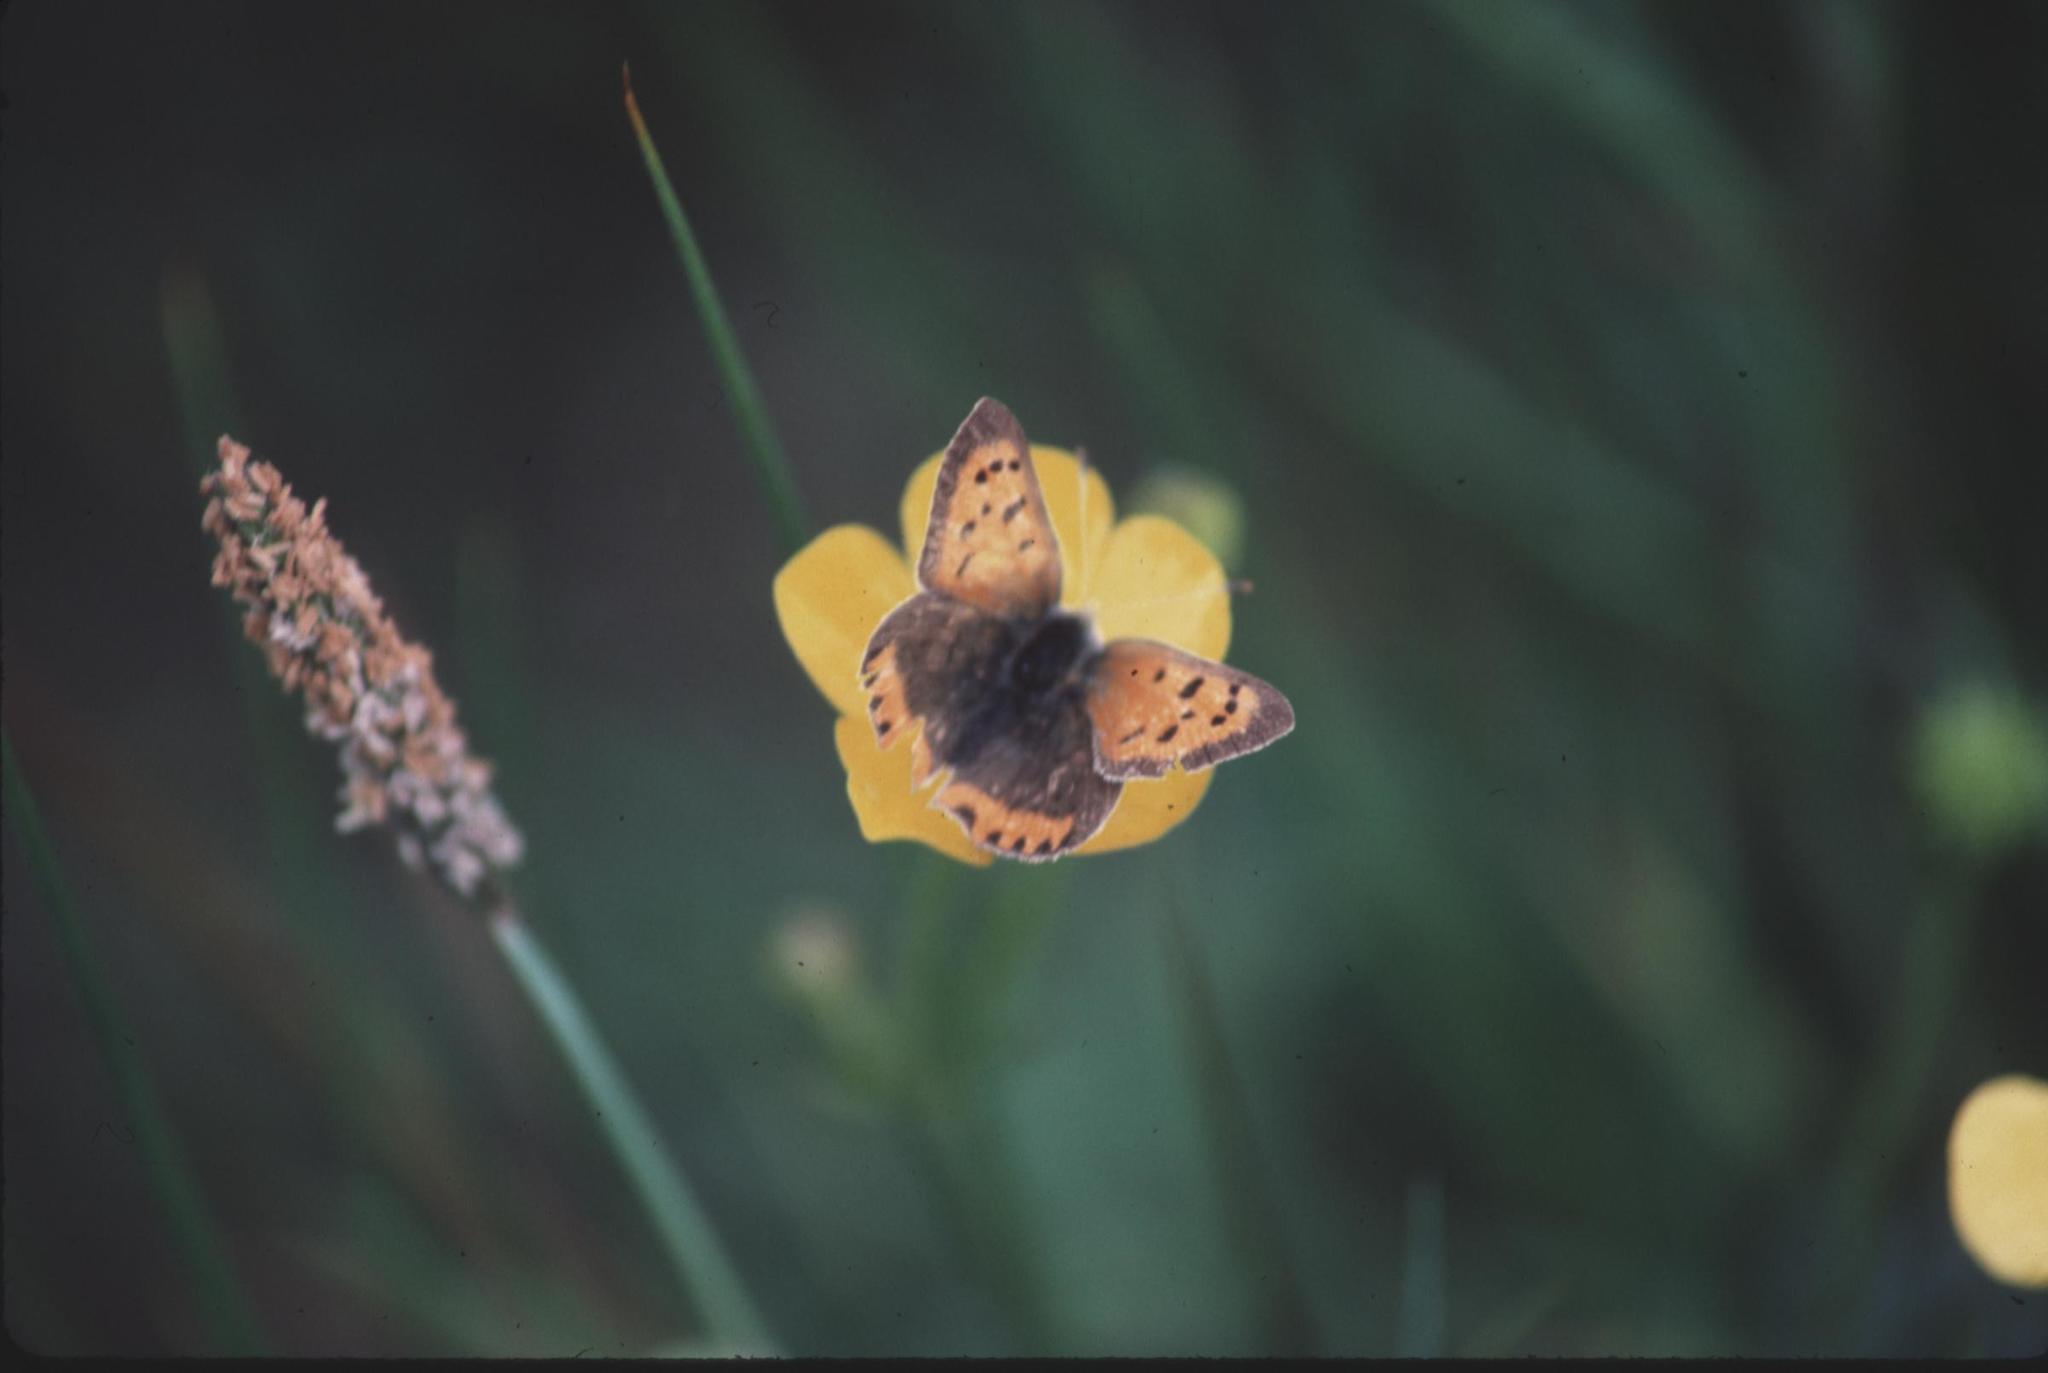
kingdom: Animalia
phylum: Arthropoda
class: Insecta
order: Lepidoptera
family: Lycaenidae
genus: Lycaena
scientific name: Lycaena phlaeas
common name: Small copper
